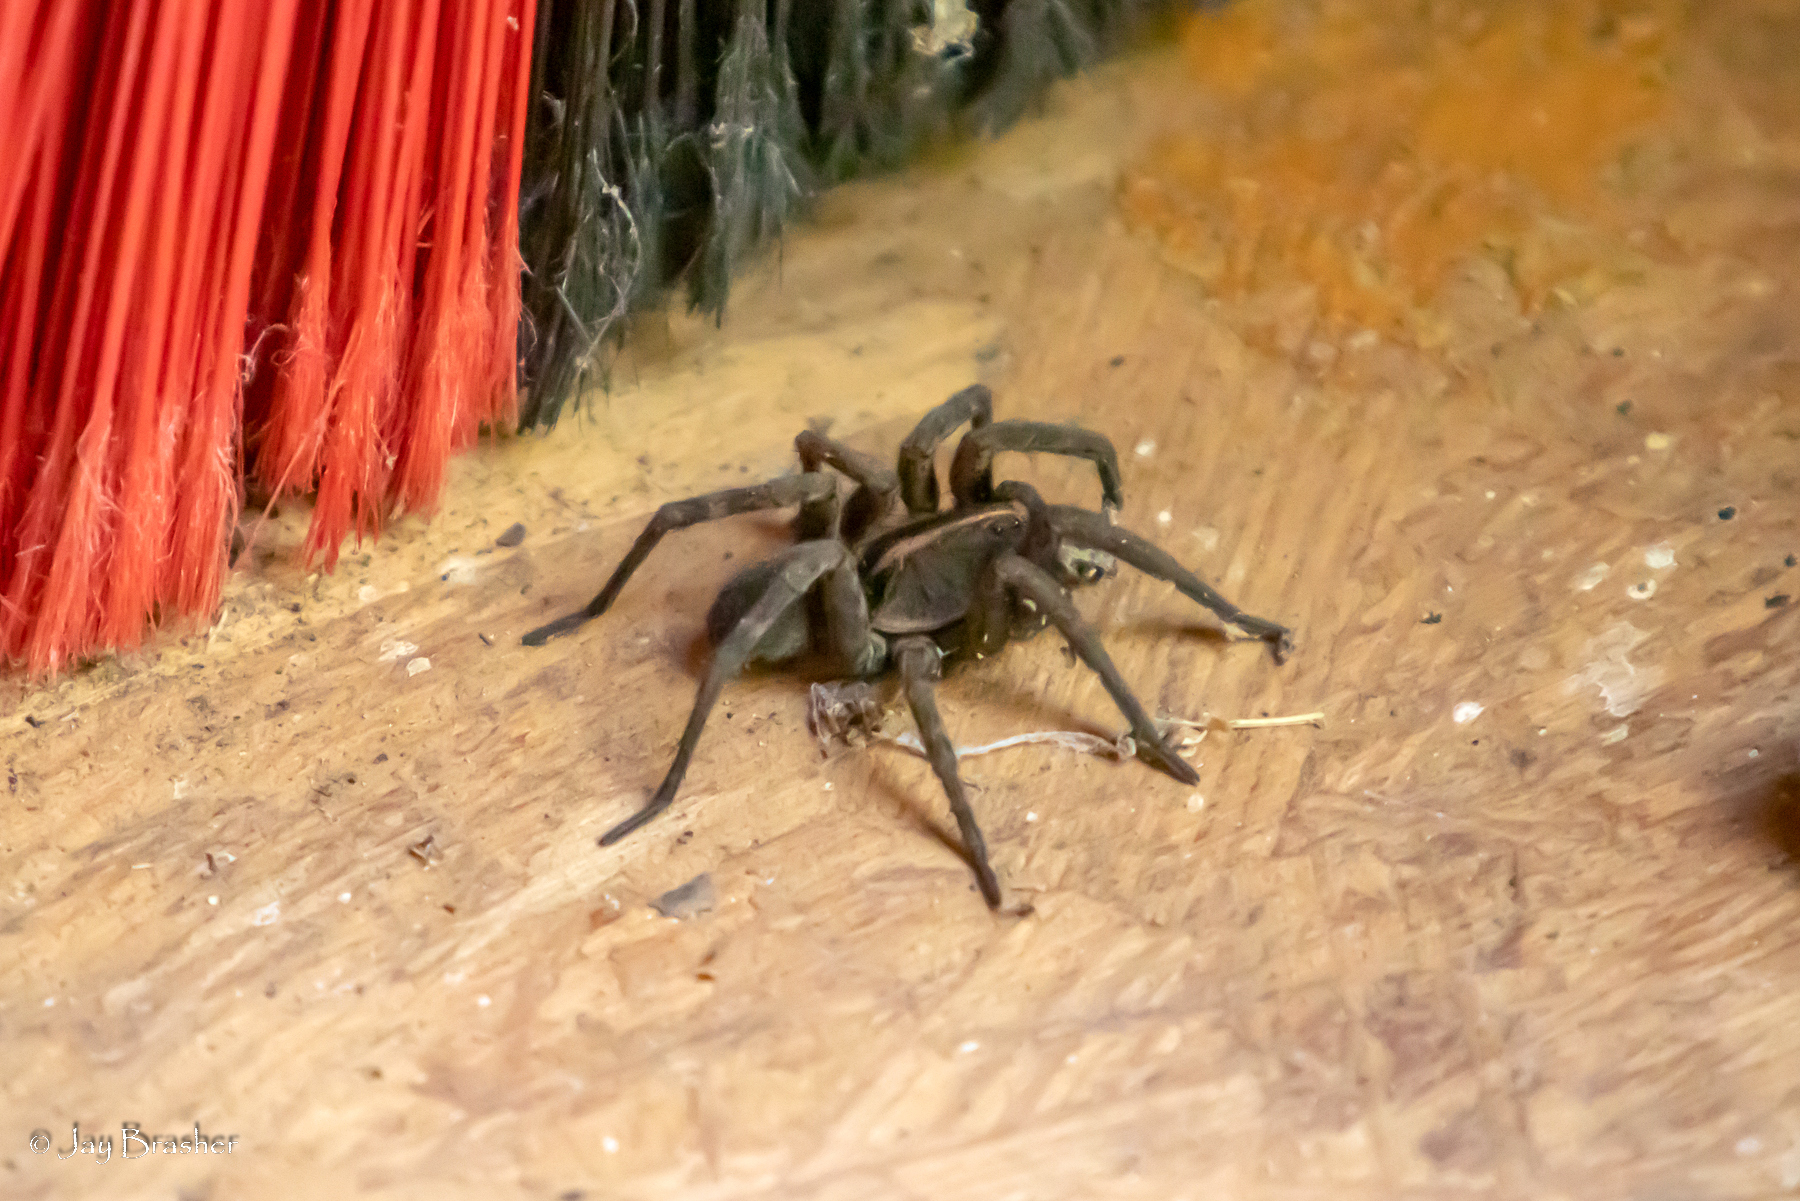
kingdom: Animalia
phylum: Arthropoda
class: Arachnida
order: Araneae
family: Lycosidae
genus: Tigrosa
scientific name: Tigrosa helluo
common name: Wetland giant wolf spider
